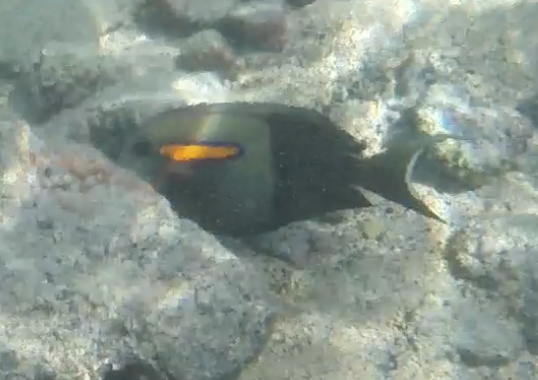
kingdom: Animalia
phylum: Chordata
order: Perciformes
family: Acanthuridae
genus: Acanthurus
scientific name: Acanthurus olivaceus
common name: Gendarme fish
